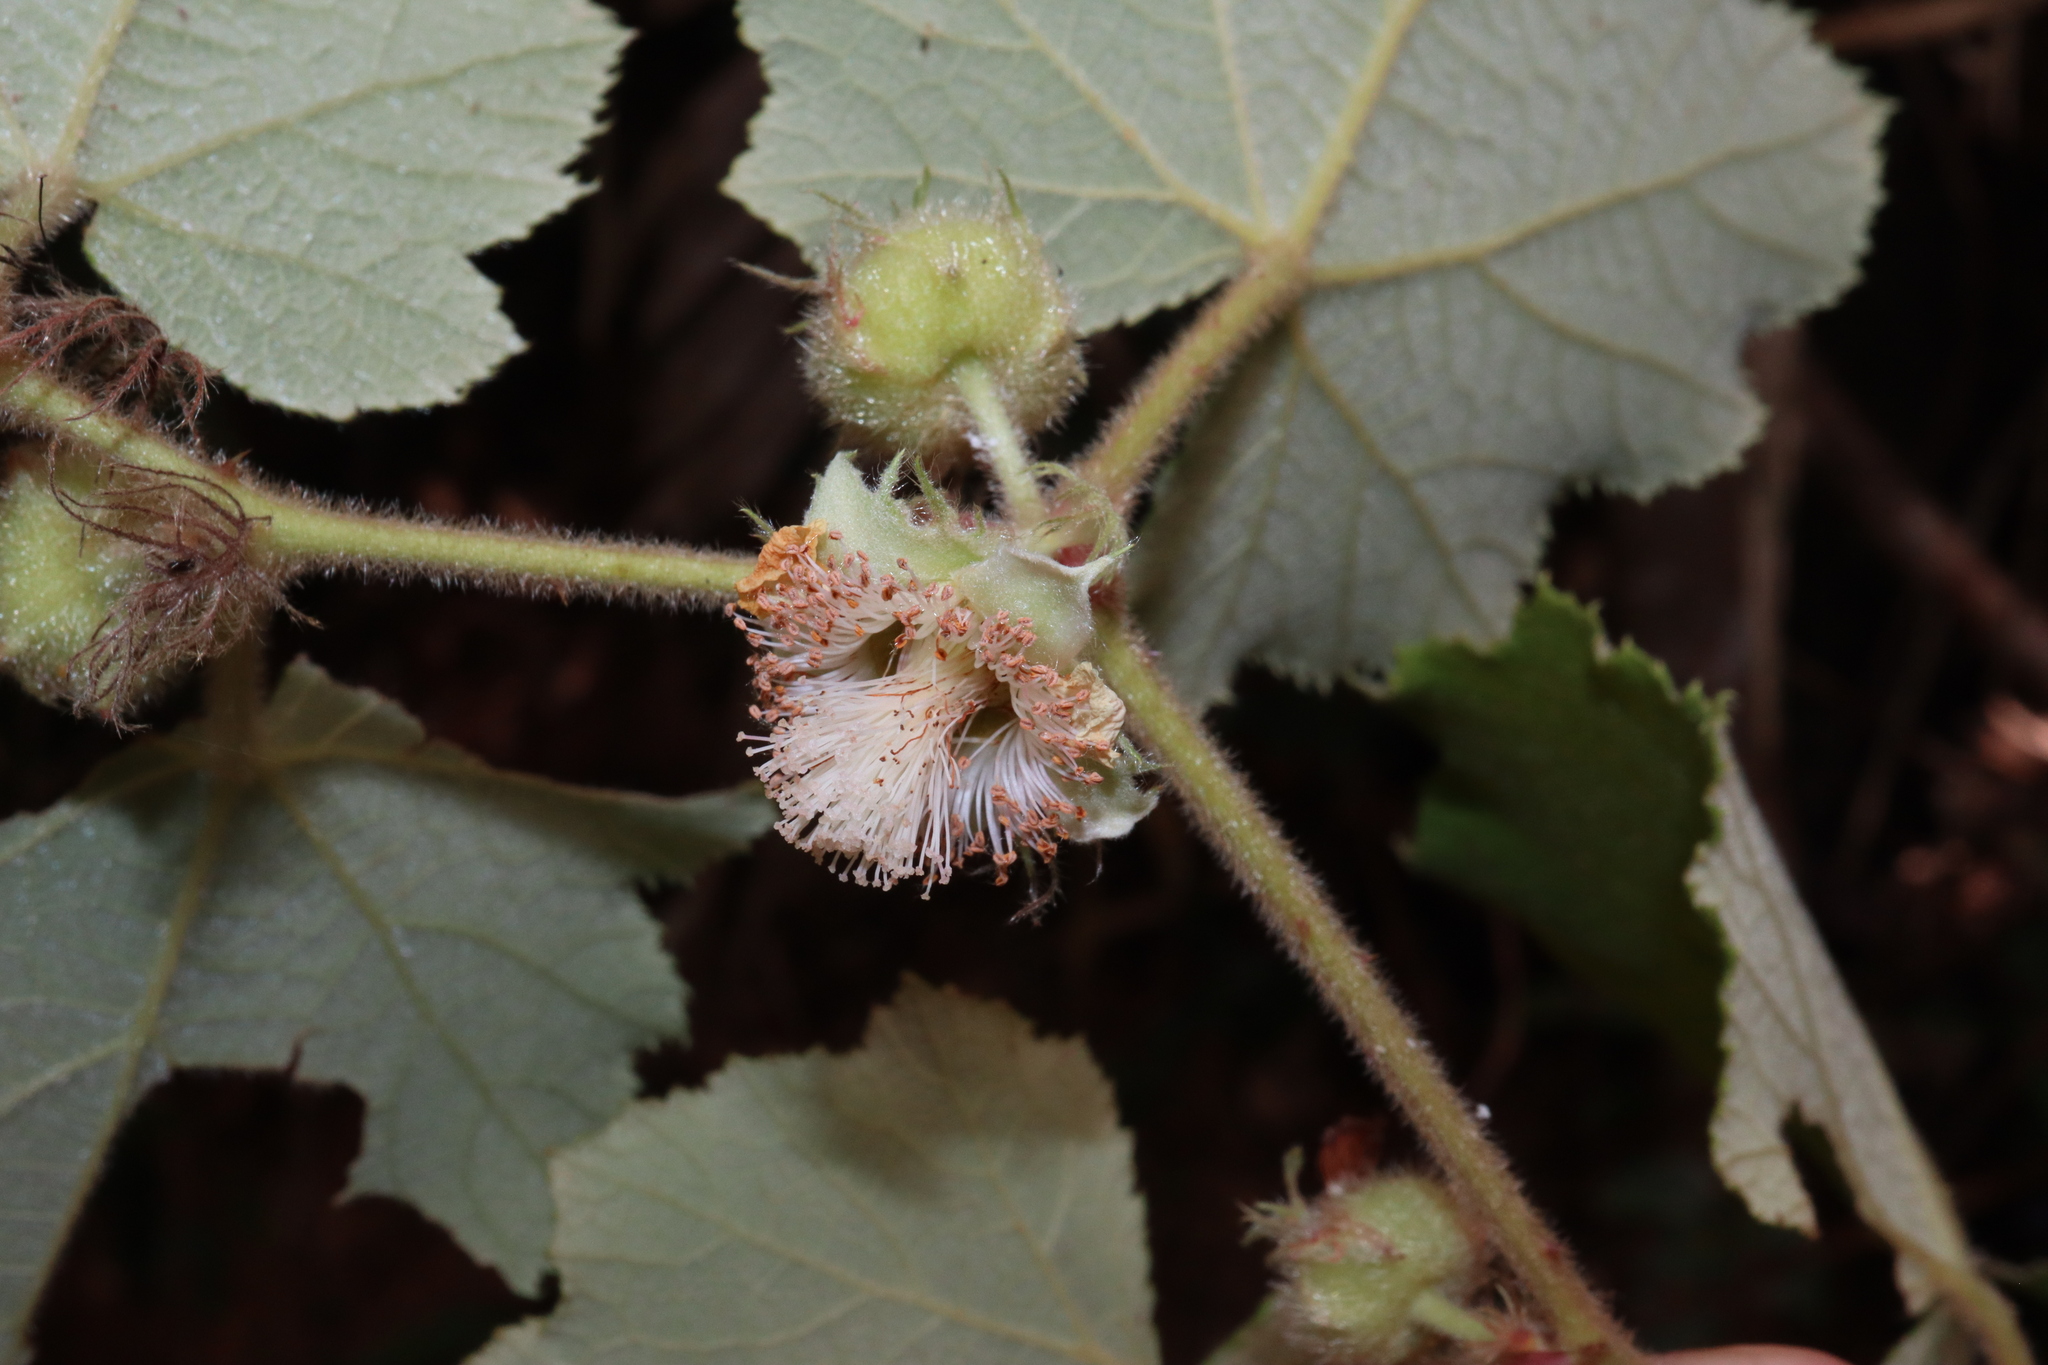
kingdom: Plantae
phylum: Tracheophyta
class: Magnoliopsida
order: Rosales
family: Rosaceae
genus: Rubus
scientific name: Rubus alceifolius
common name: Giant bramble
